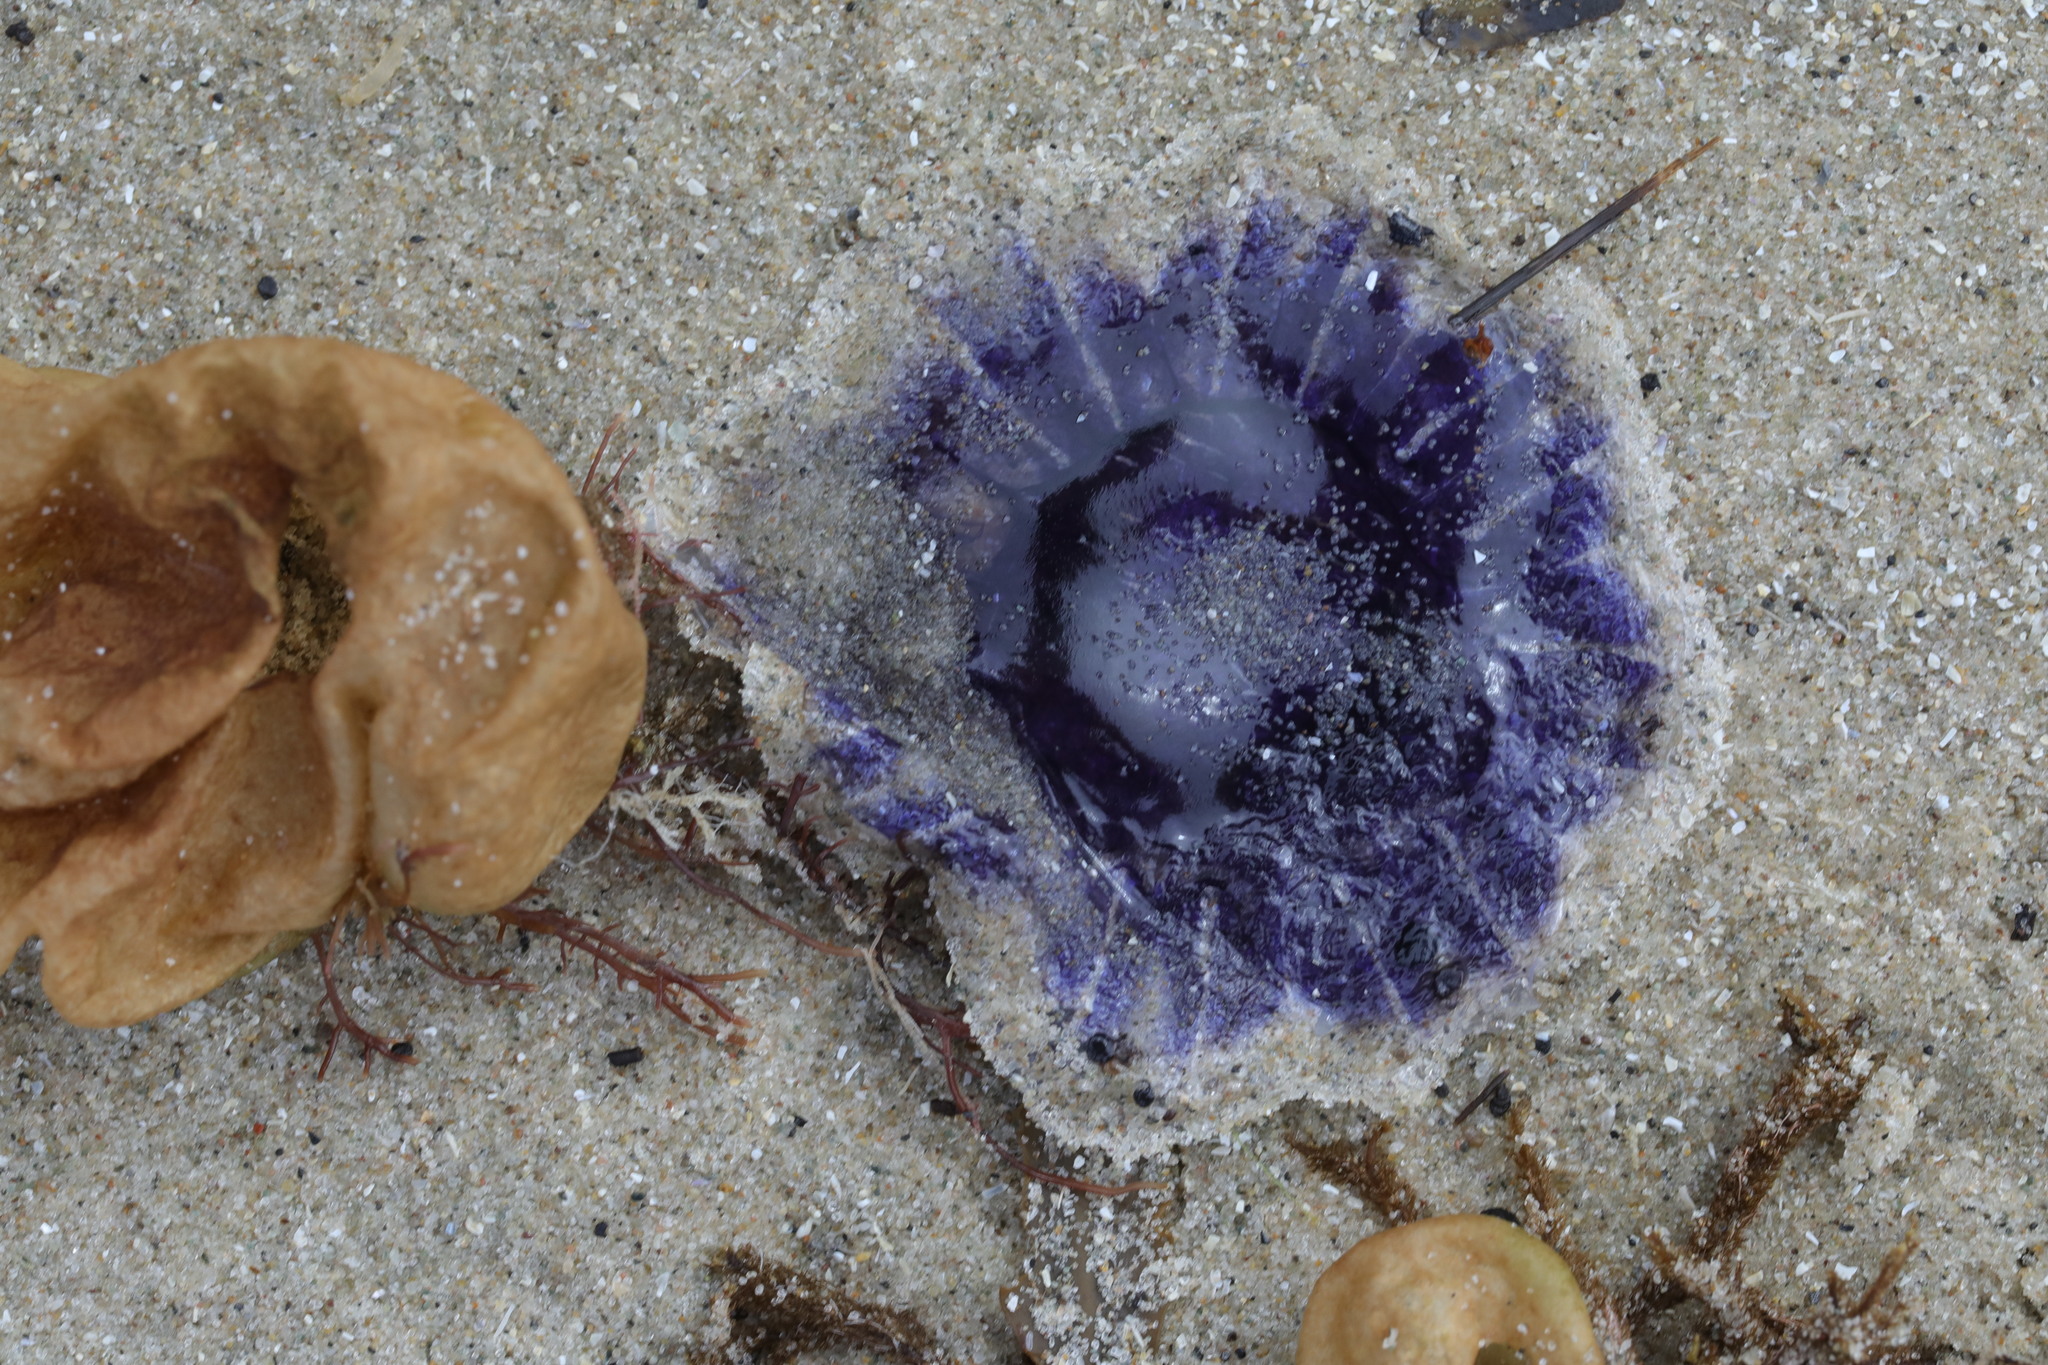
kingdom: Animalia
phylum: Cnidaria
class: Scyphozoa
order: Semaeostomeae
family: Cyaneidae
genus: Cyanea
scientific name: Cyanea lamarckii
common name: Blue jellyfish
